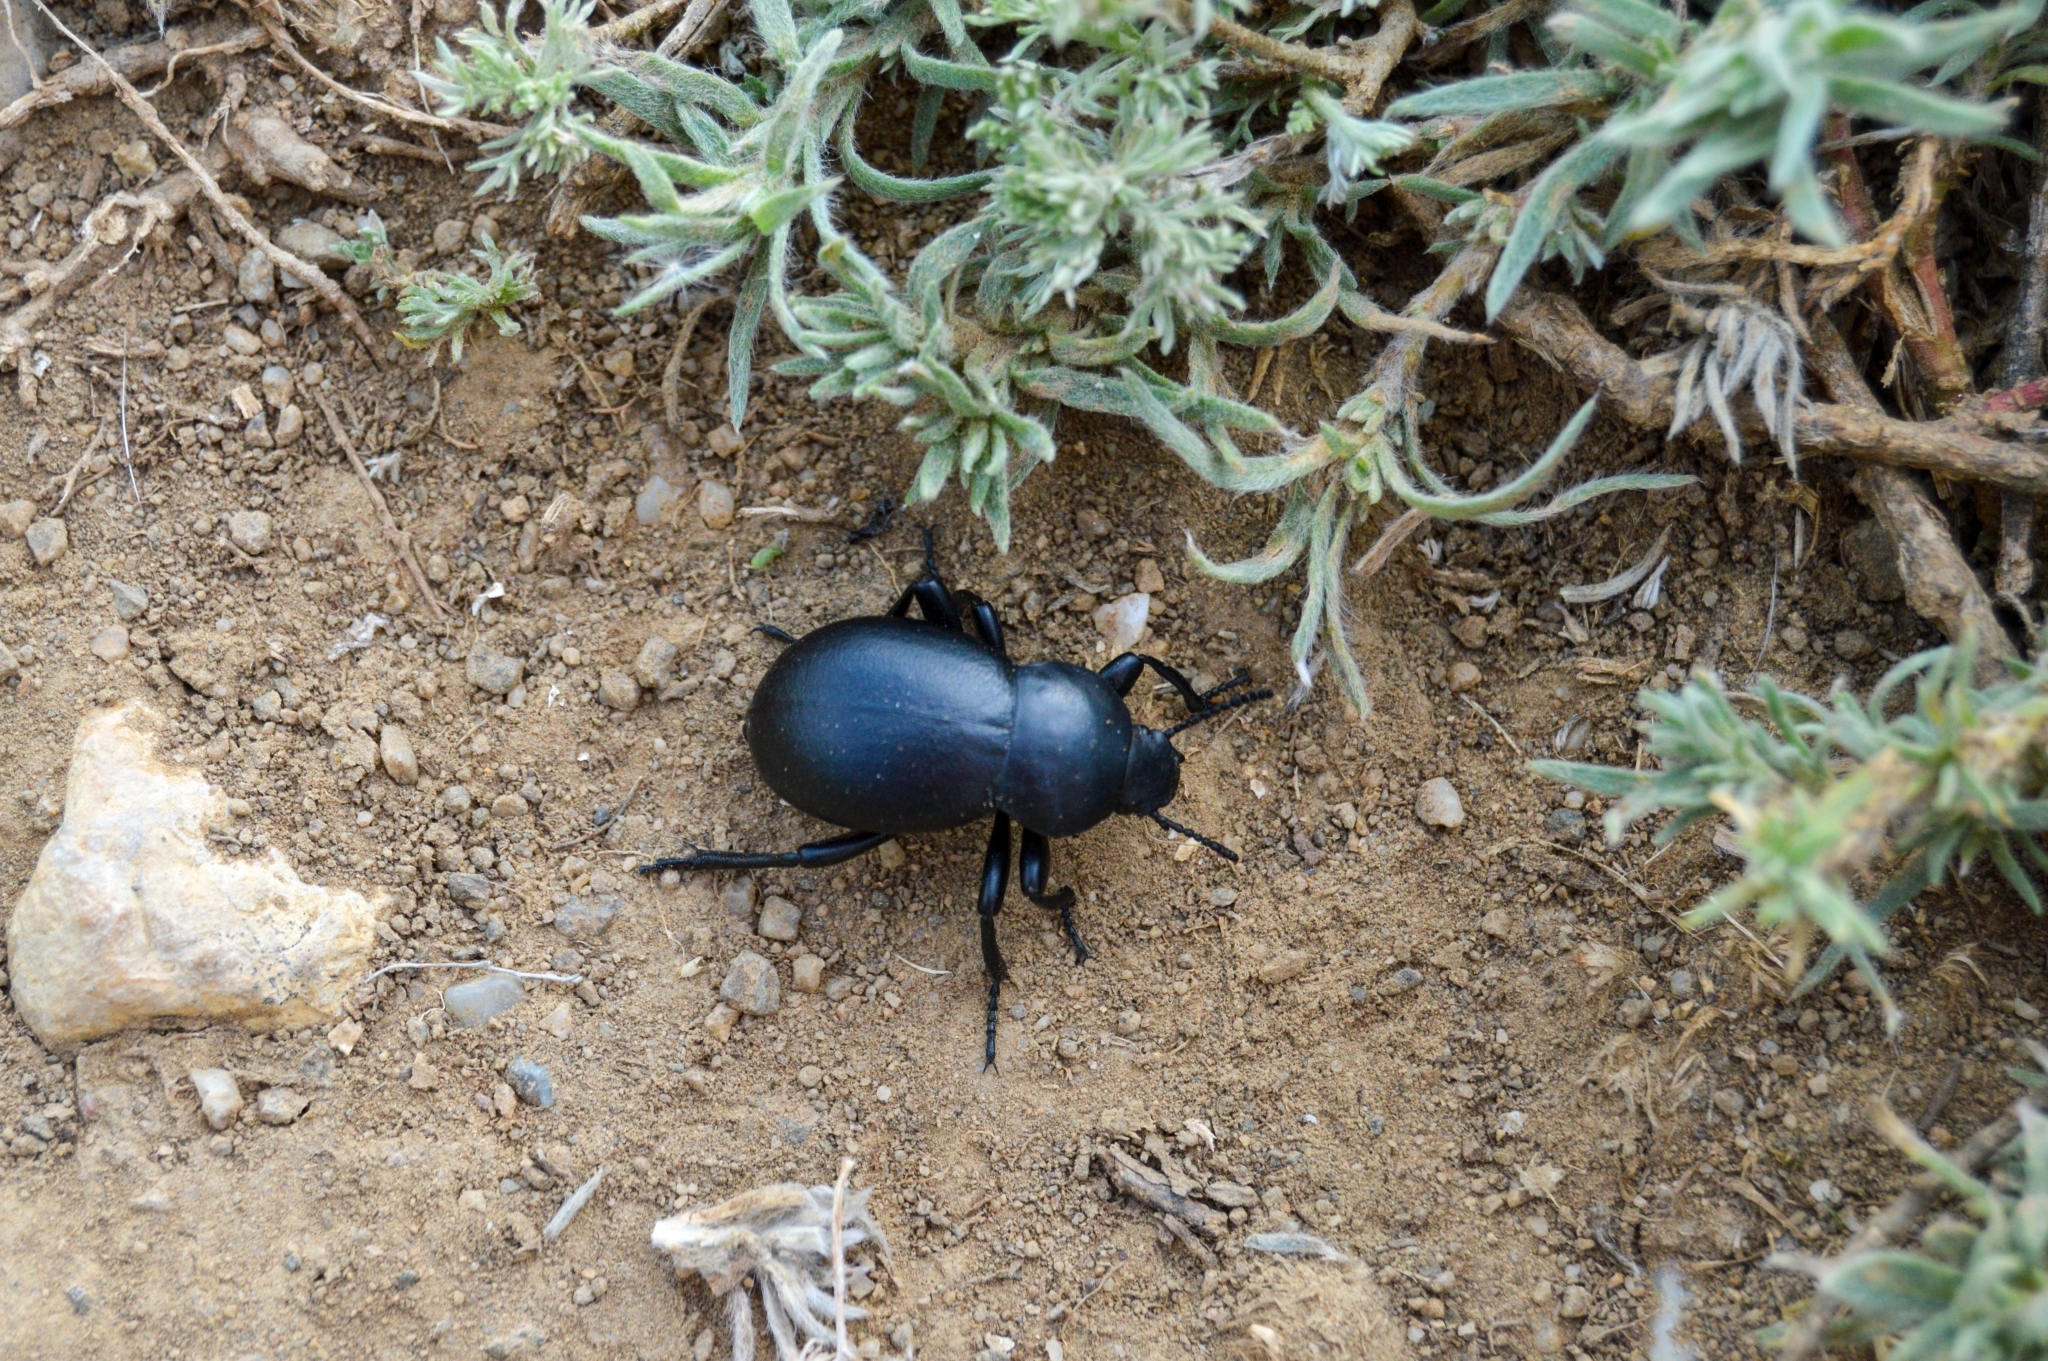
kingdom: Animalia
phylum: Arthropoda
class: Insecta
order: Coleoptera
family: Tenebrionidae
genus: Gnaptor
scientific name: Gnaptor spinimanus
